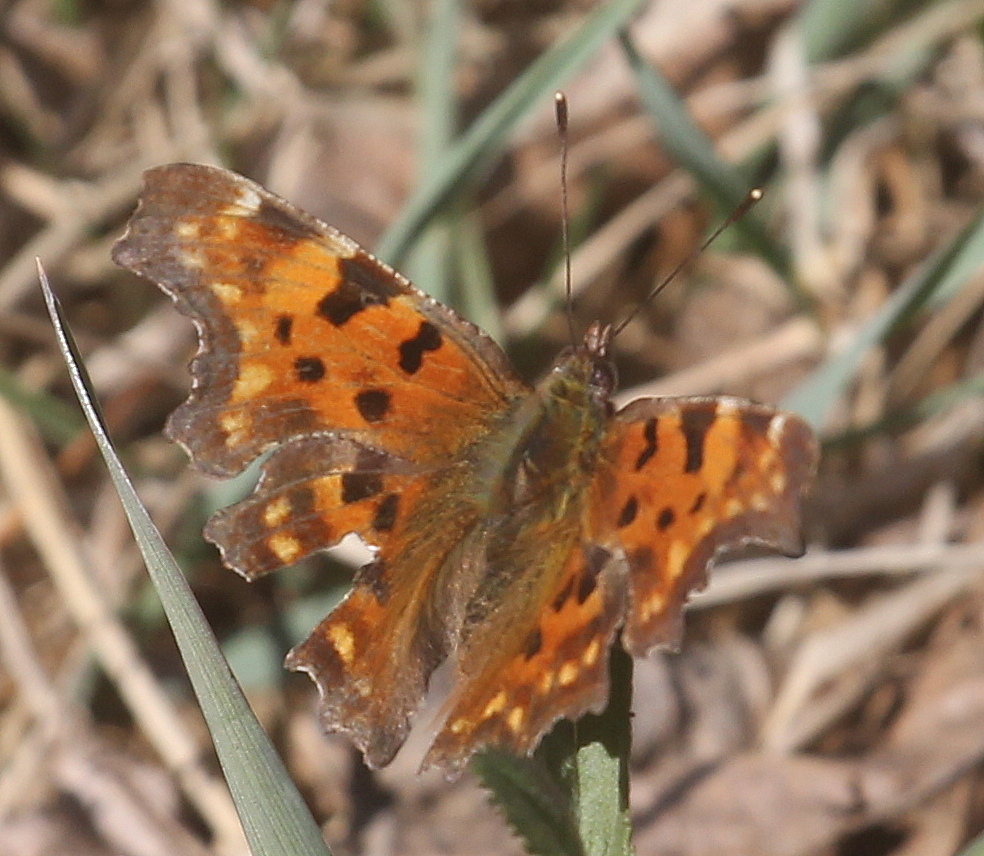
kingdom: Animalia
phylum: Arthropoda
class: Insecta
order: Lepidoptera
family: Nymphalidae
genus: Polygonia
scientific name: Polygonia c-album
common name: Comma
